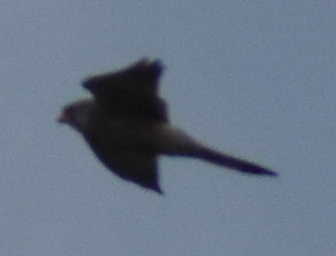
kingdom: Animalia
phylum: Chordata
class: Aves
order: Falconiformes
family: Falconidae
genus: Falco
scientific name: Falco tinnunculus
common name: Common kestrel
